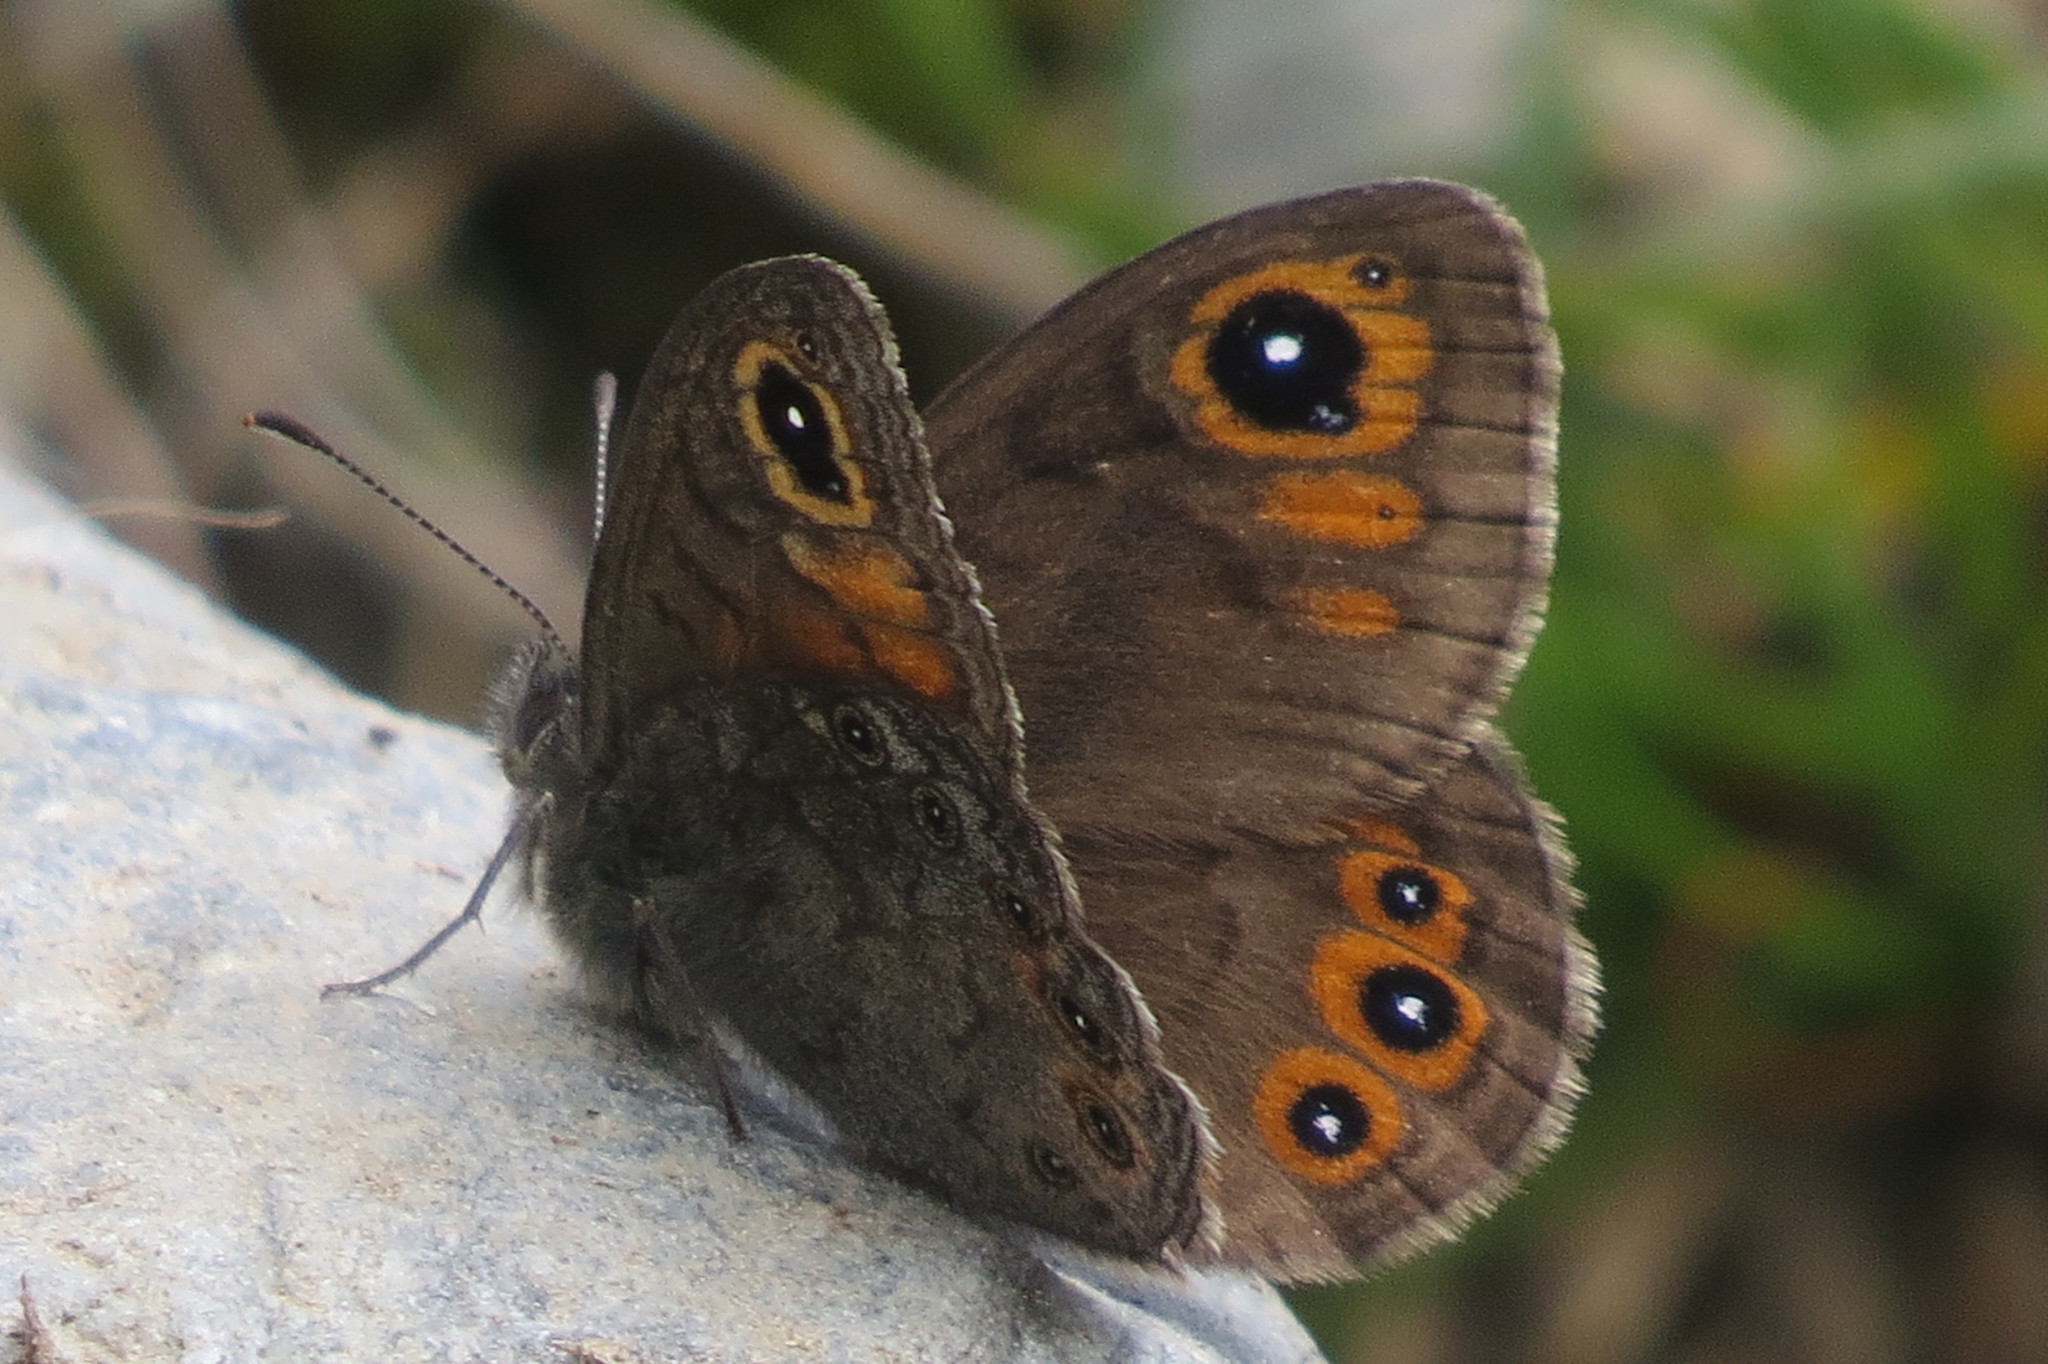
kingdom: Animalia
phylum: Arthropoda
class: Insecta
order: Lepidoptera
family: Nymphalidae
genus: Pararge
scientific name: Pararge petropolitana
